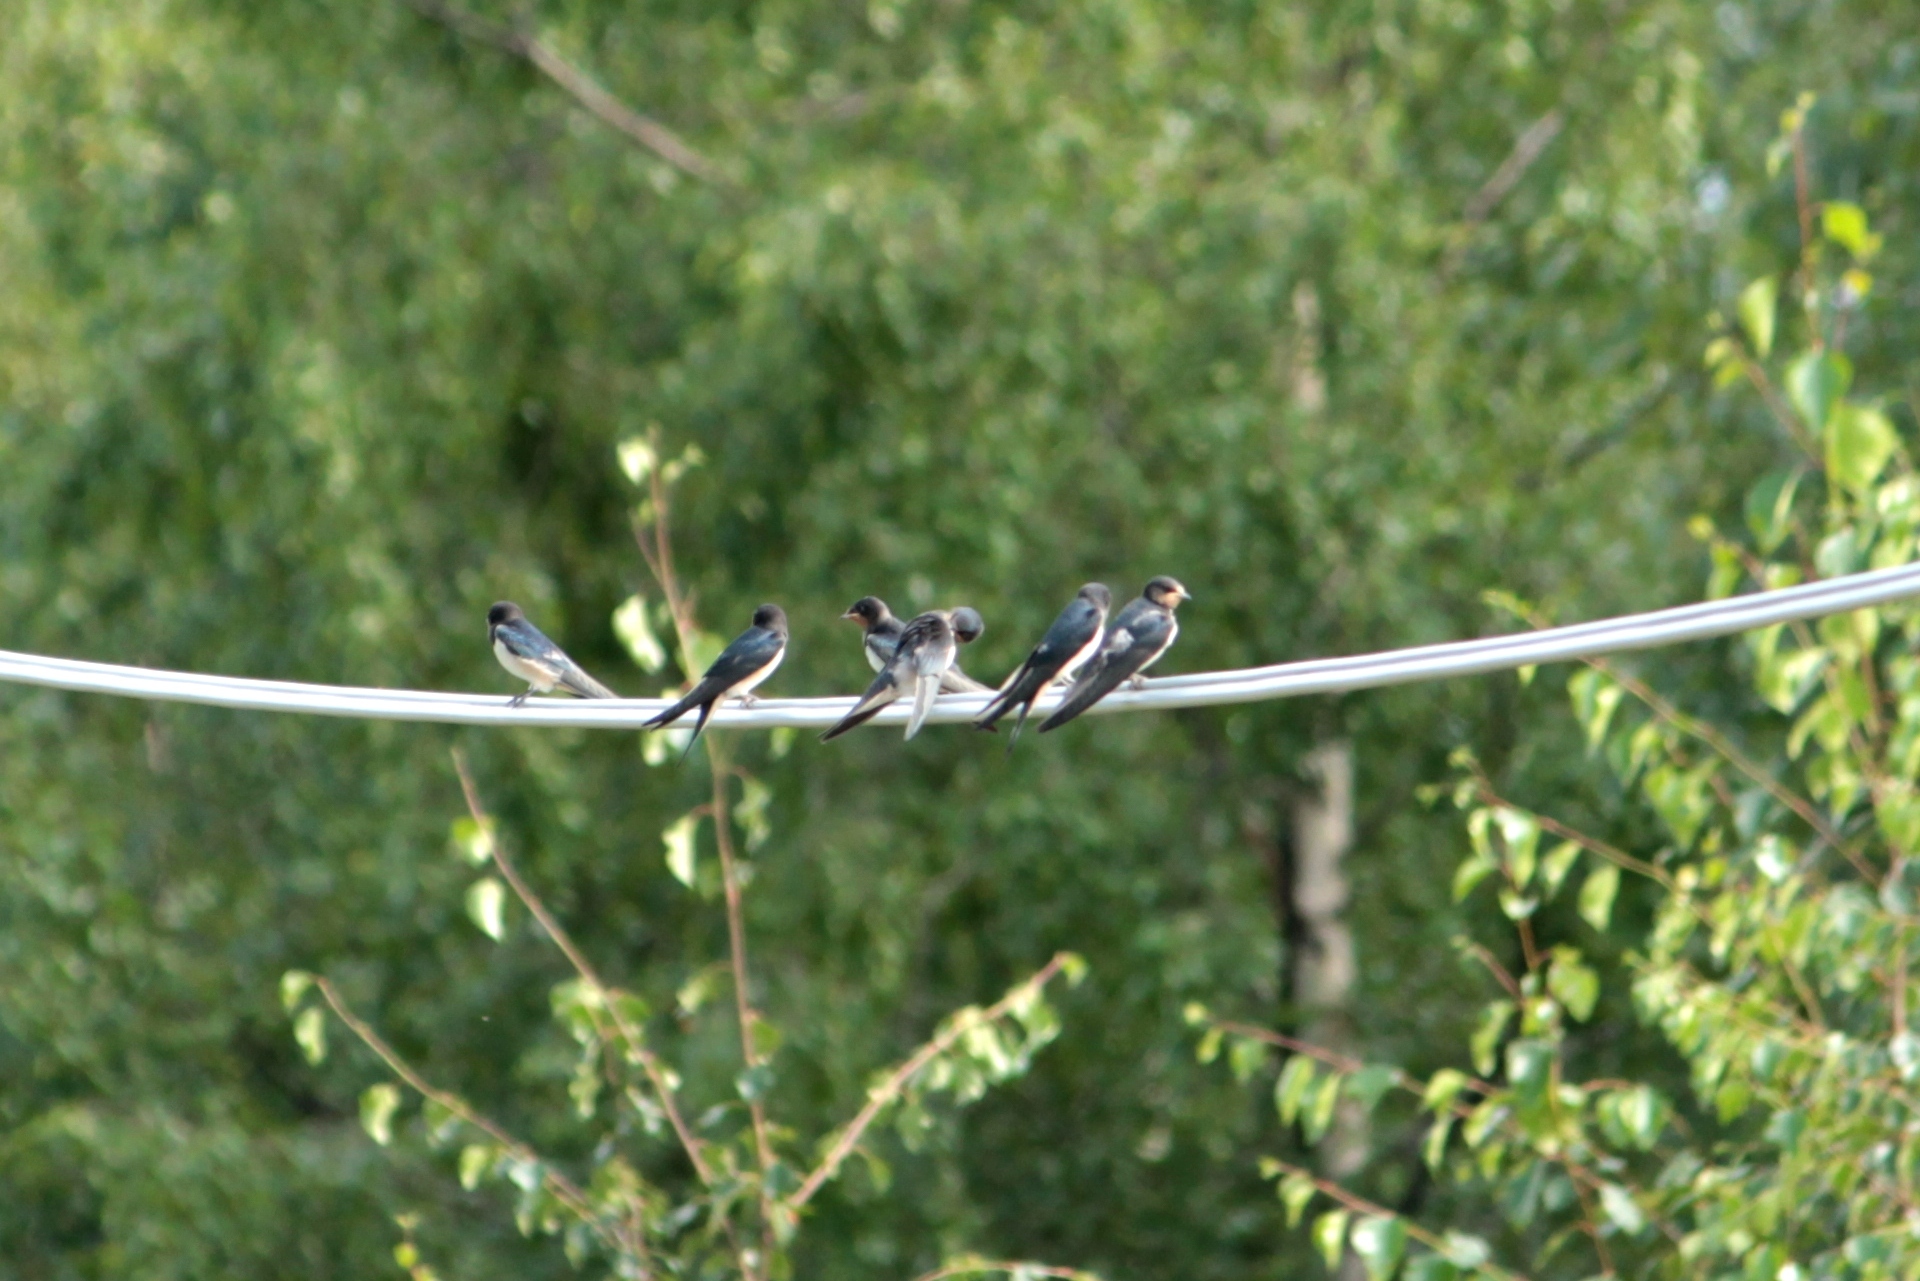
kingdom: Animalia
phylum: Chordata
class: Aves
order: Passeriformes
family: Hirundinidae
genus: Hirundo
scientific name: Hirundo rustica
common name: Barn swallow
